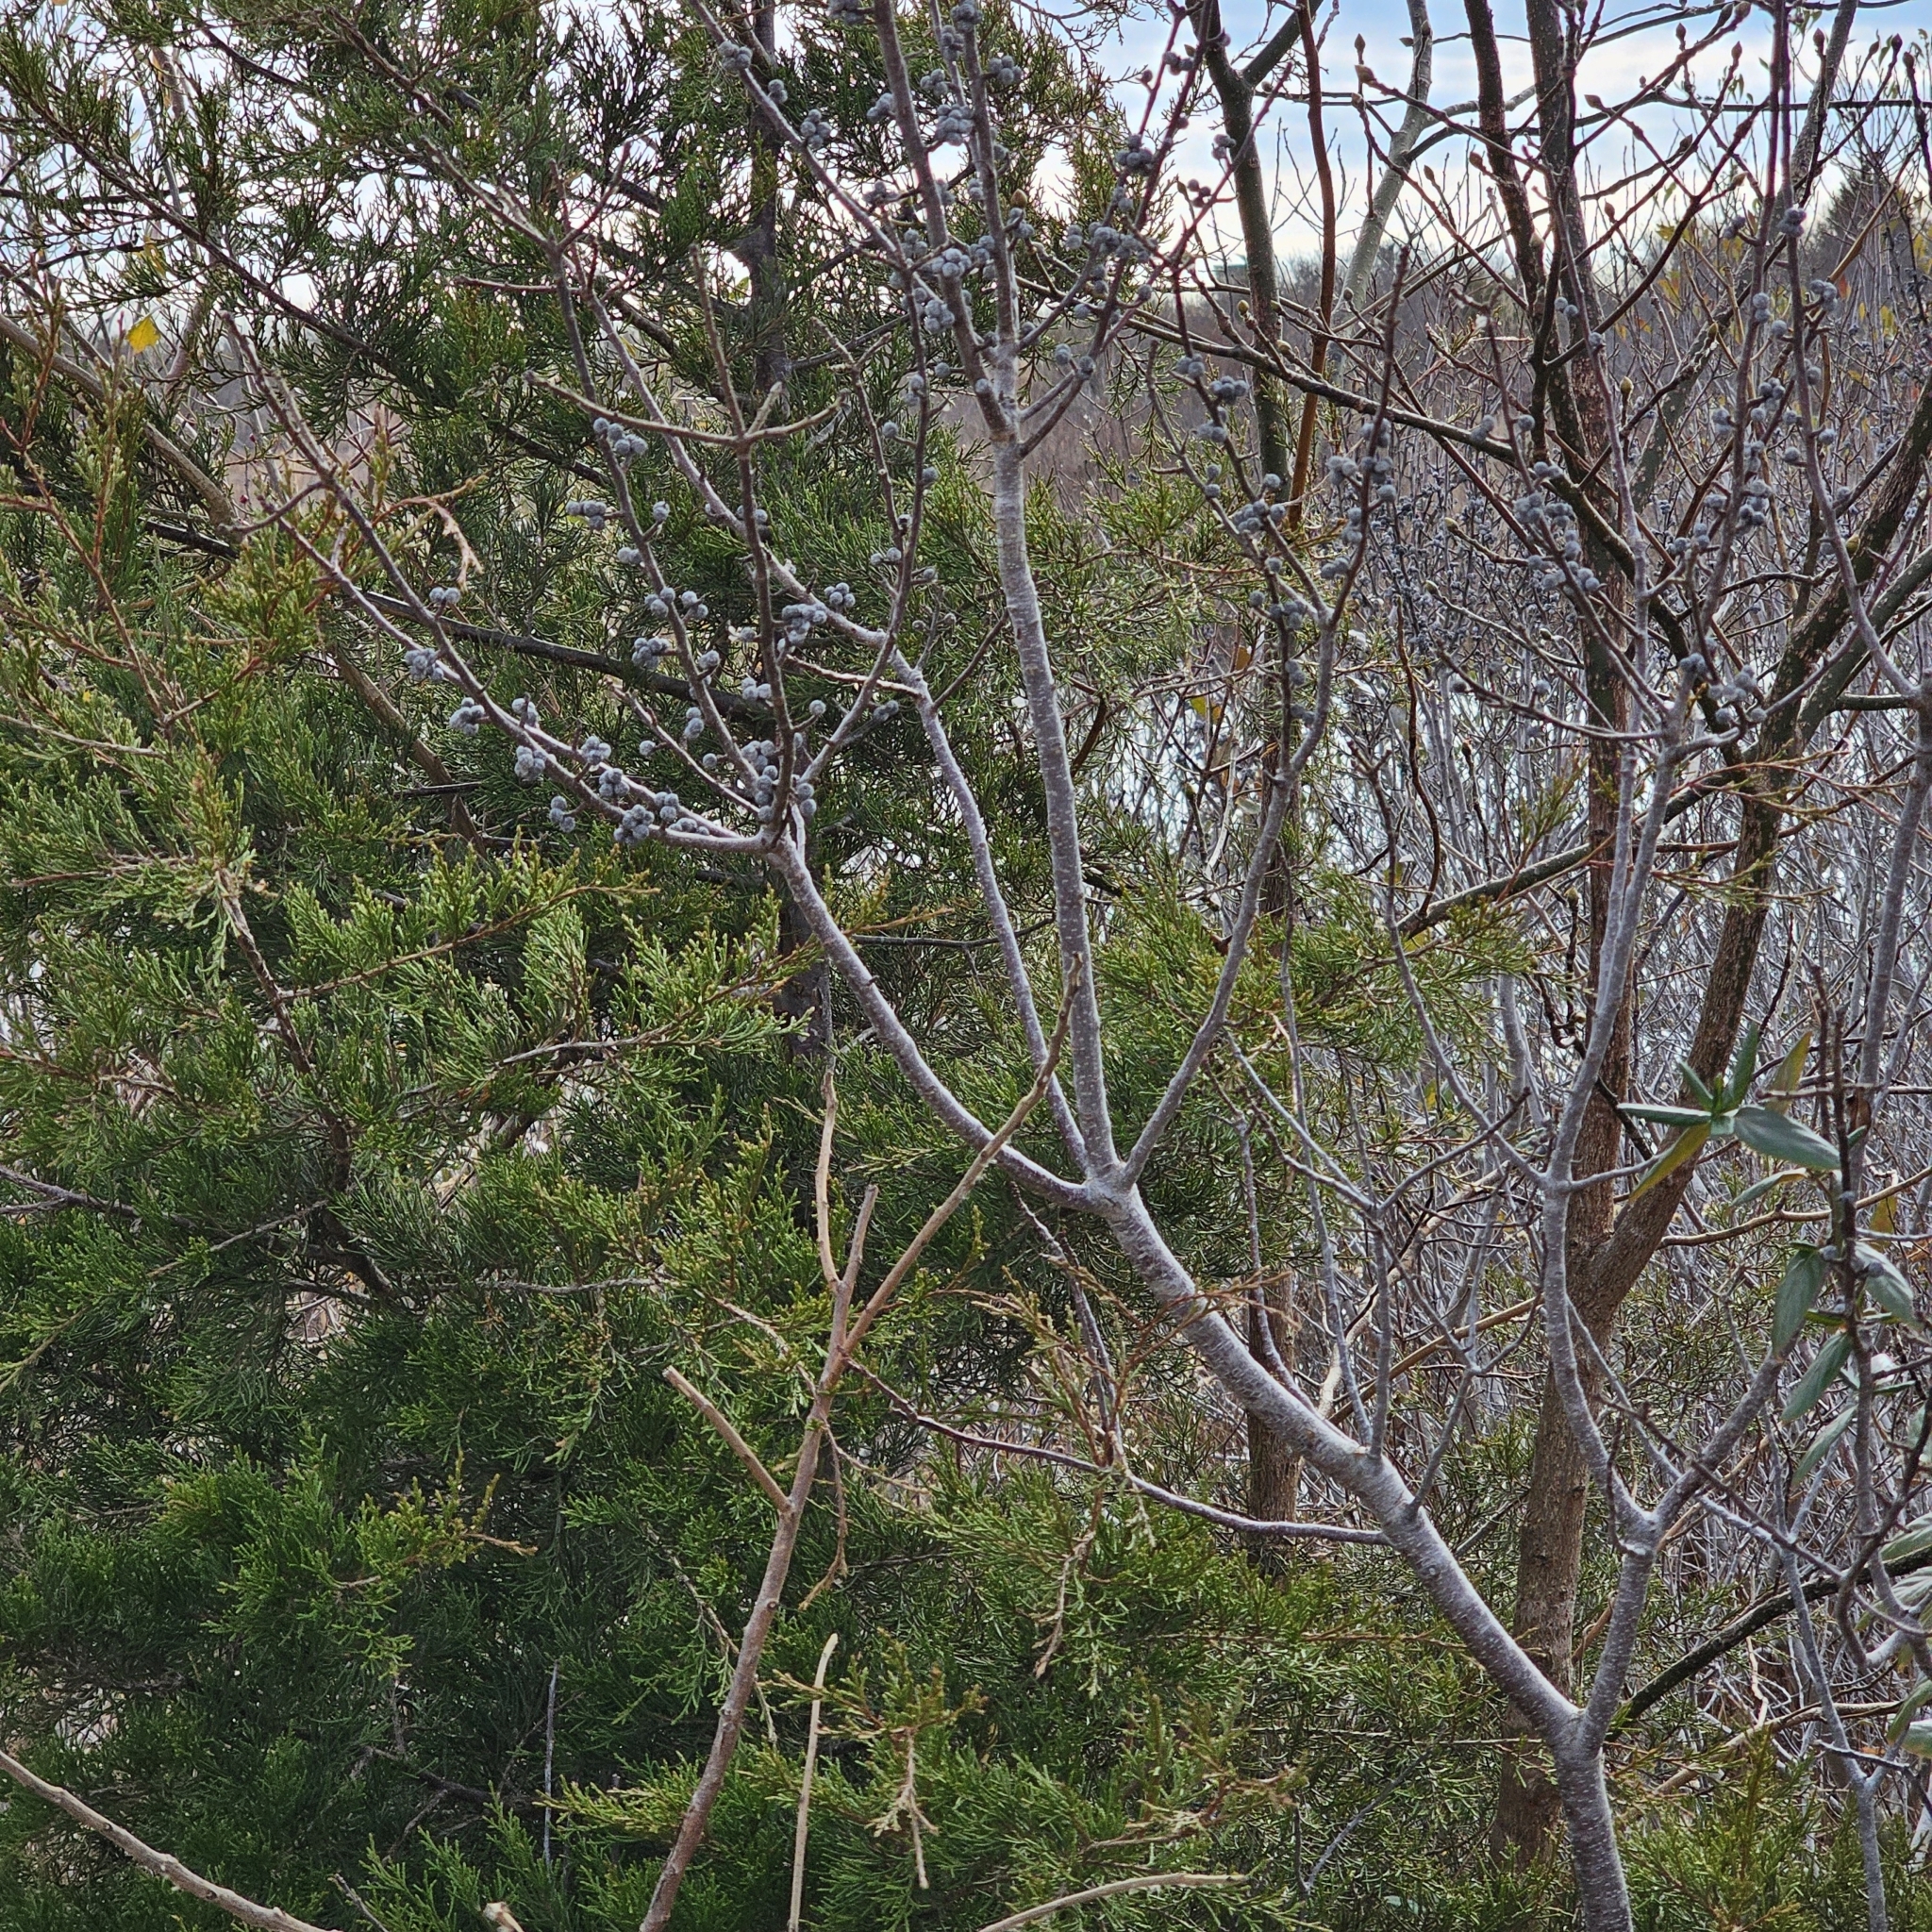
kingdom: Plantae
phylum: Tracheophyta
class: Magnoliopsida
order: Fagales
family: Myricaceae
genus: Morella
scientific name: Morella pensylvanica
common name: Northern bayberry
